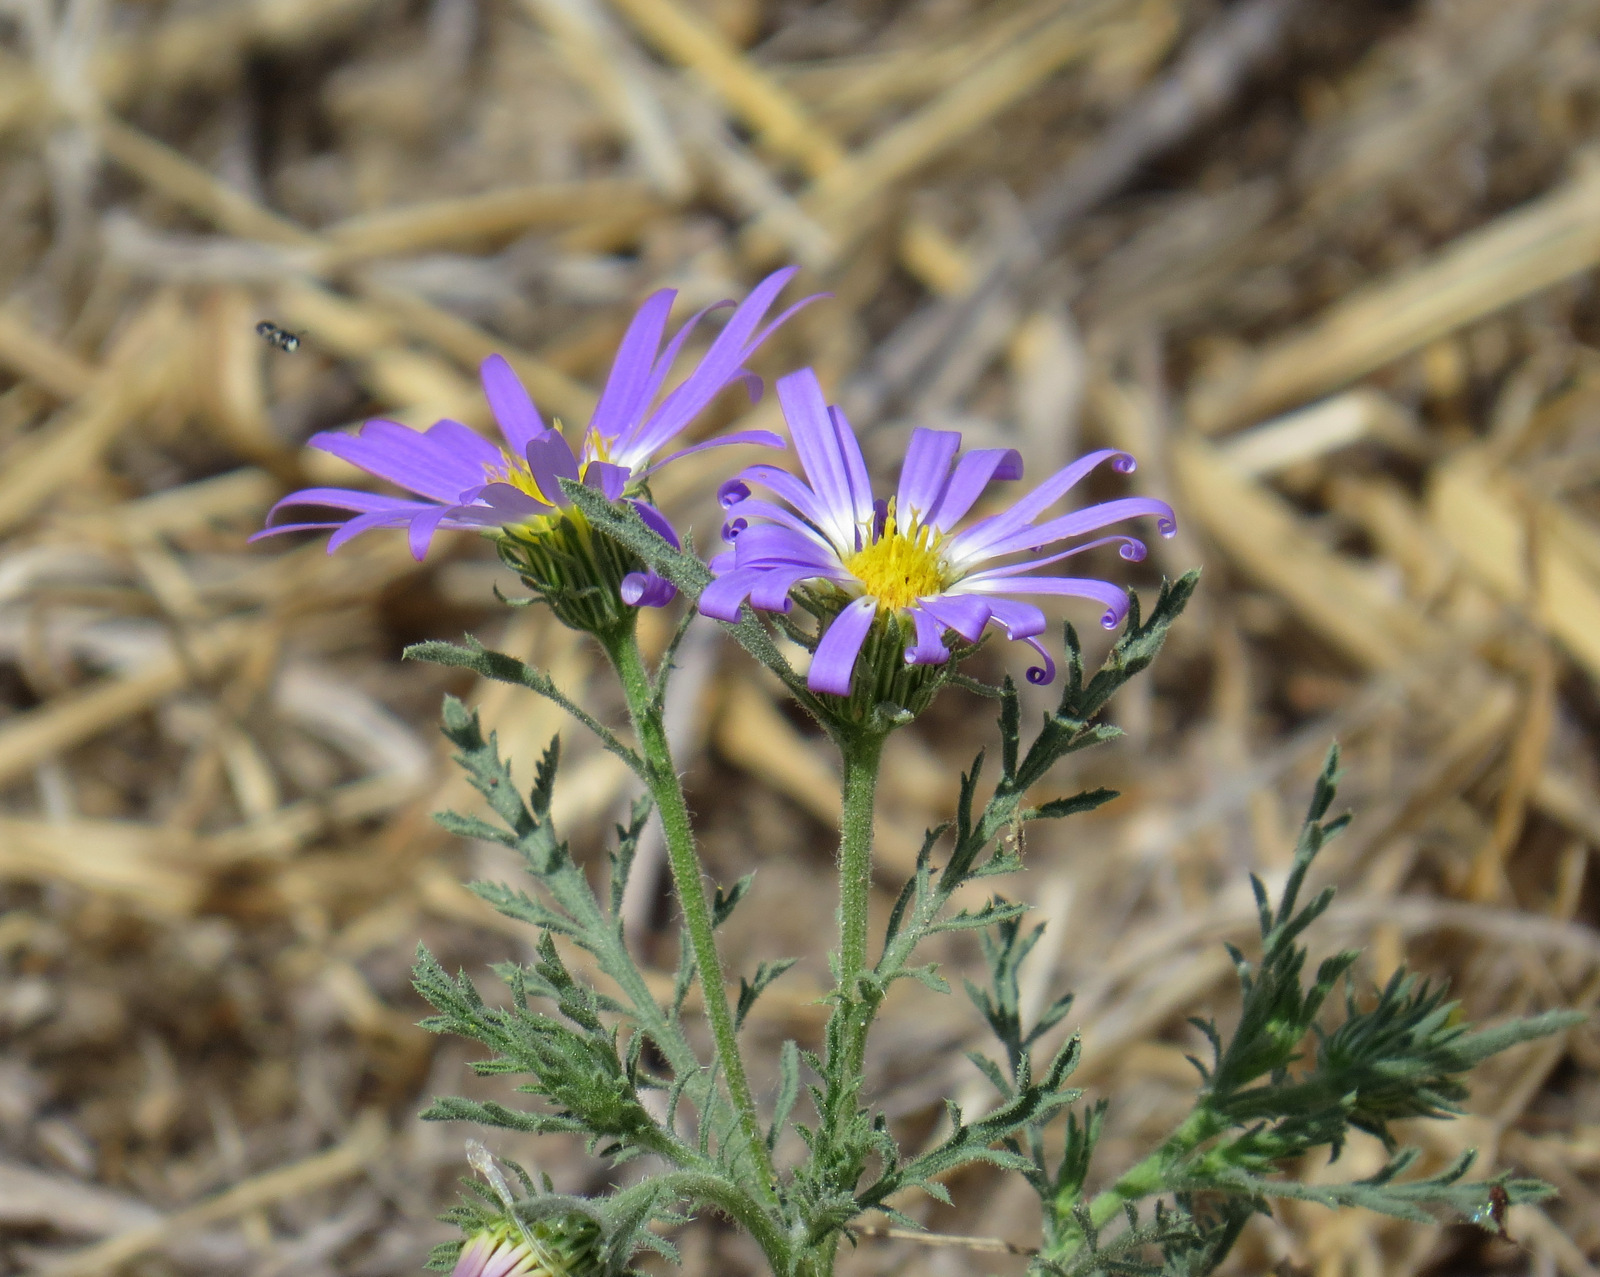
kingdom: Plantae
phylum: Tracheophyta
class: Magnoliopsida
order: Asterales
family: Asteraceae
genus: Machaeranthera
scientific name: Machaeranthera tanacetifolia
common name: Tansy-aster
